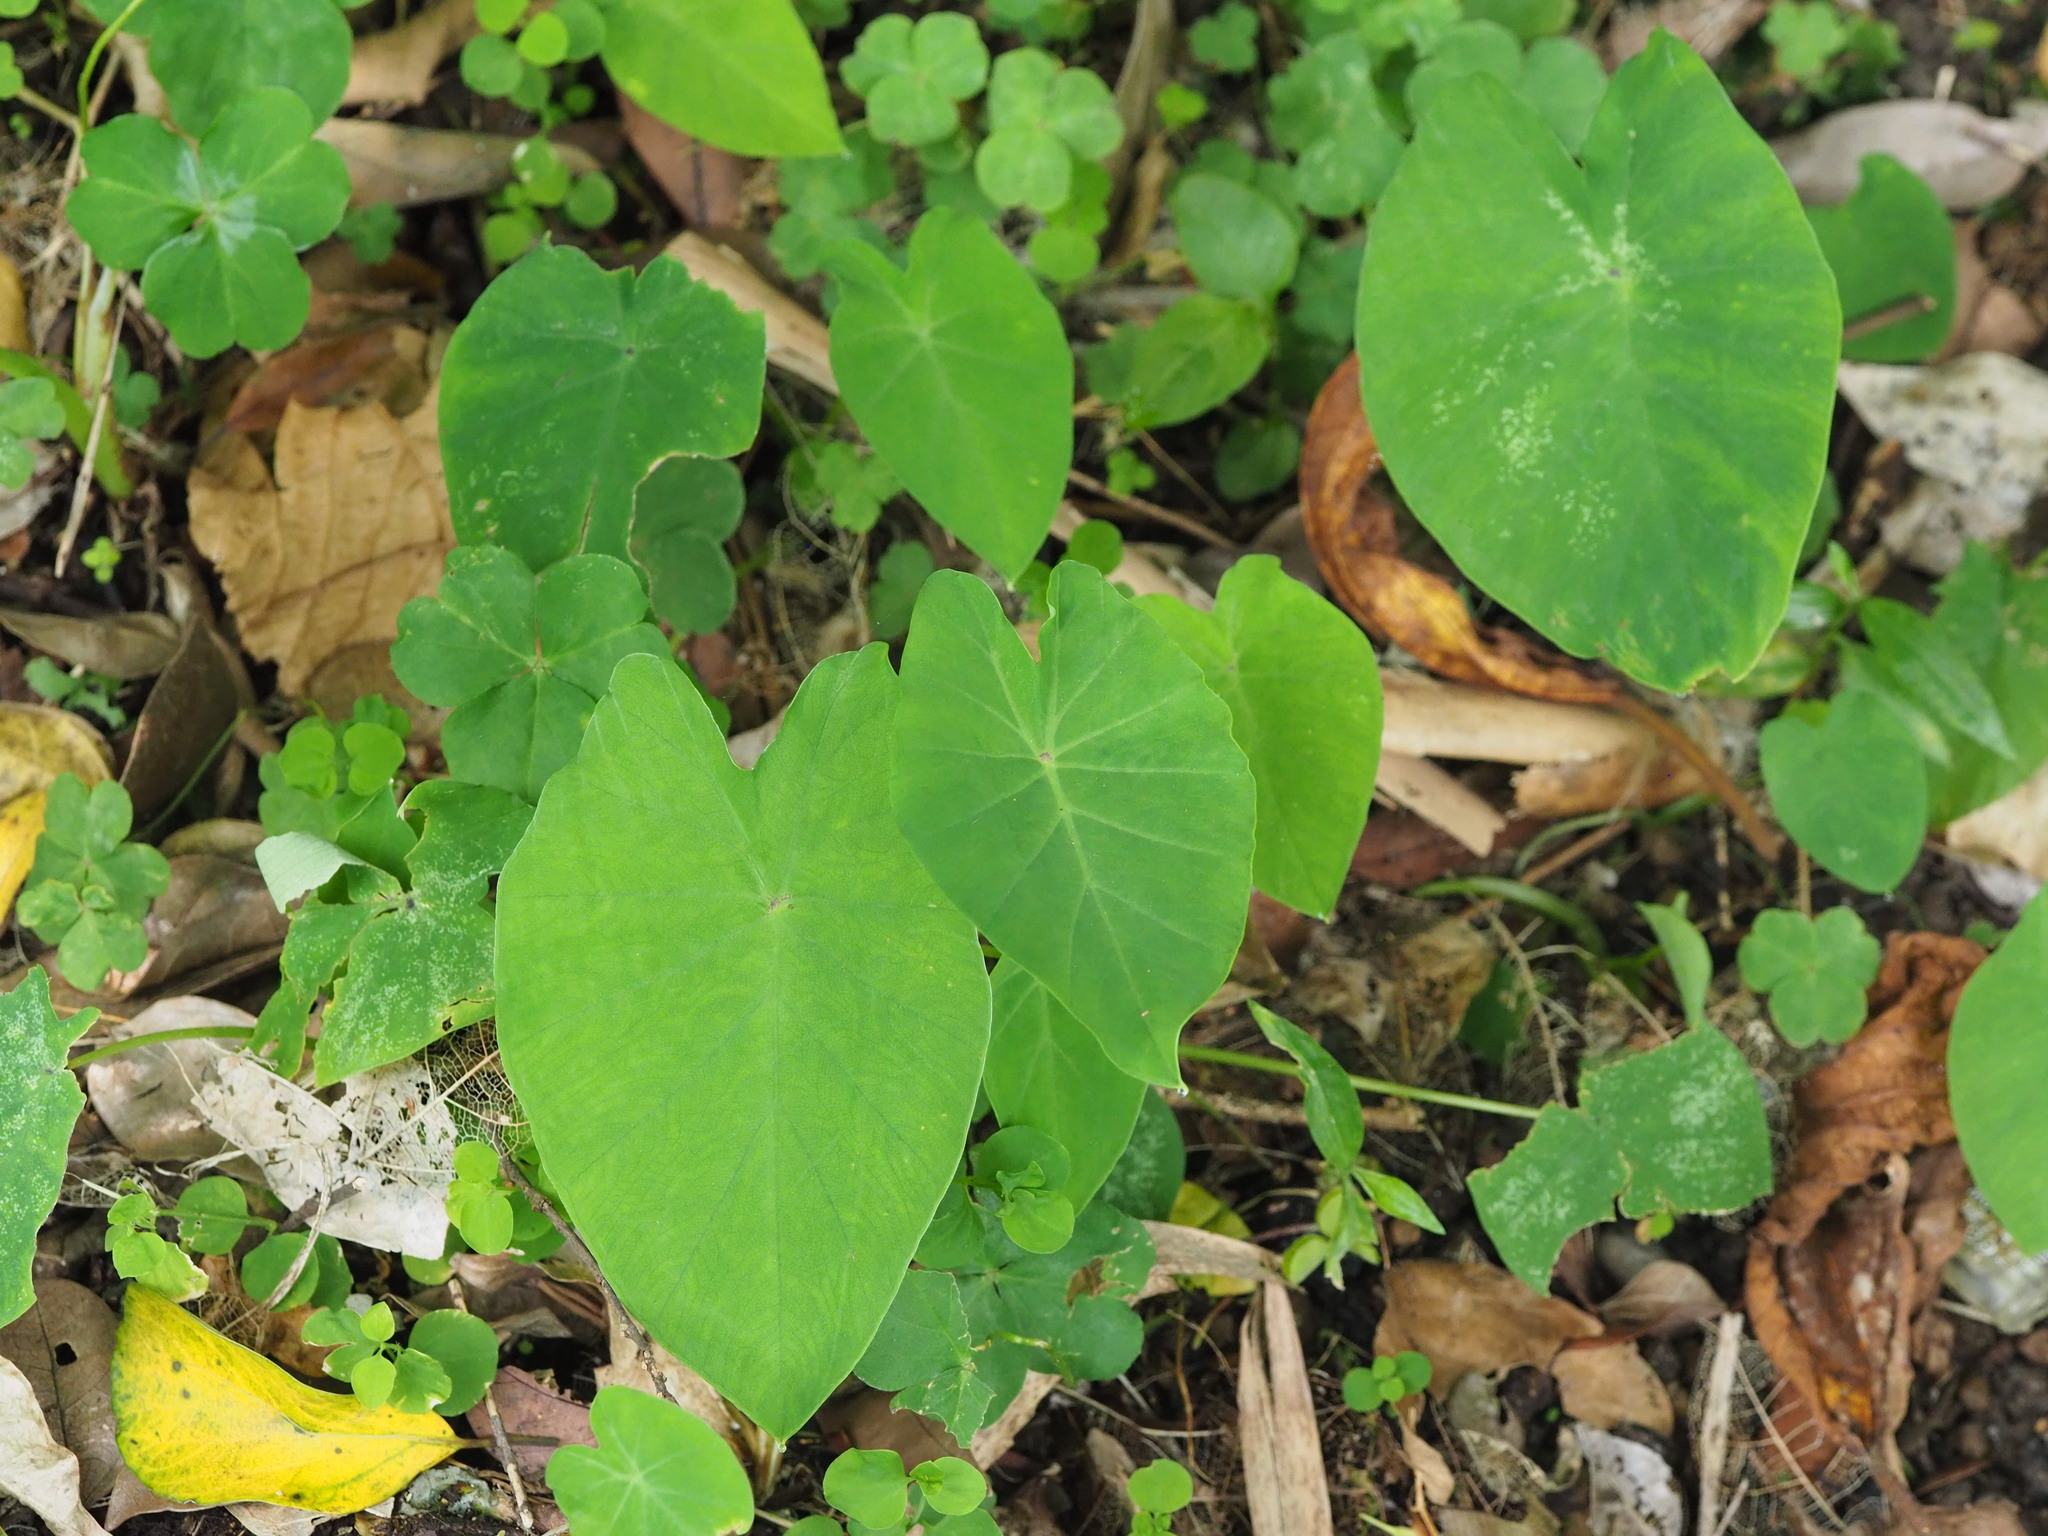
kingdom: Plantae
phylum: Tracheophyta
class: Liliopsida
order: Alismatales
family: Araceae
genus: Colocasia
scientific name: Colocasia esculenta
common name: Taro
